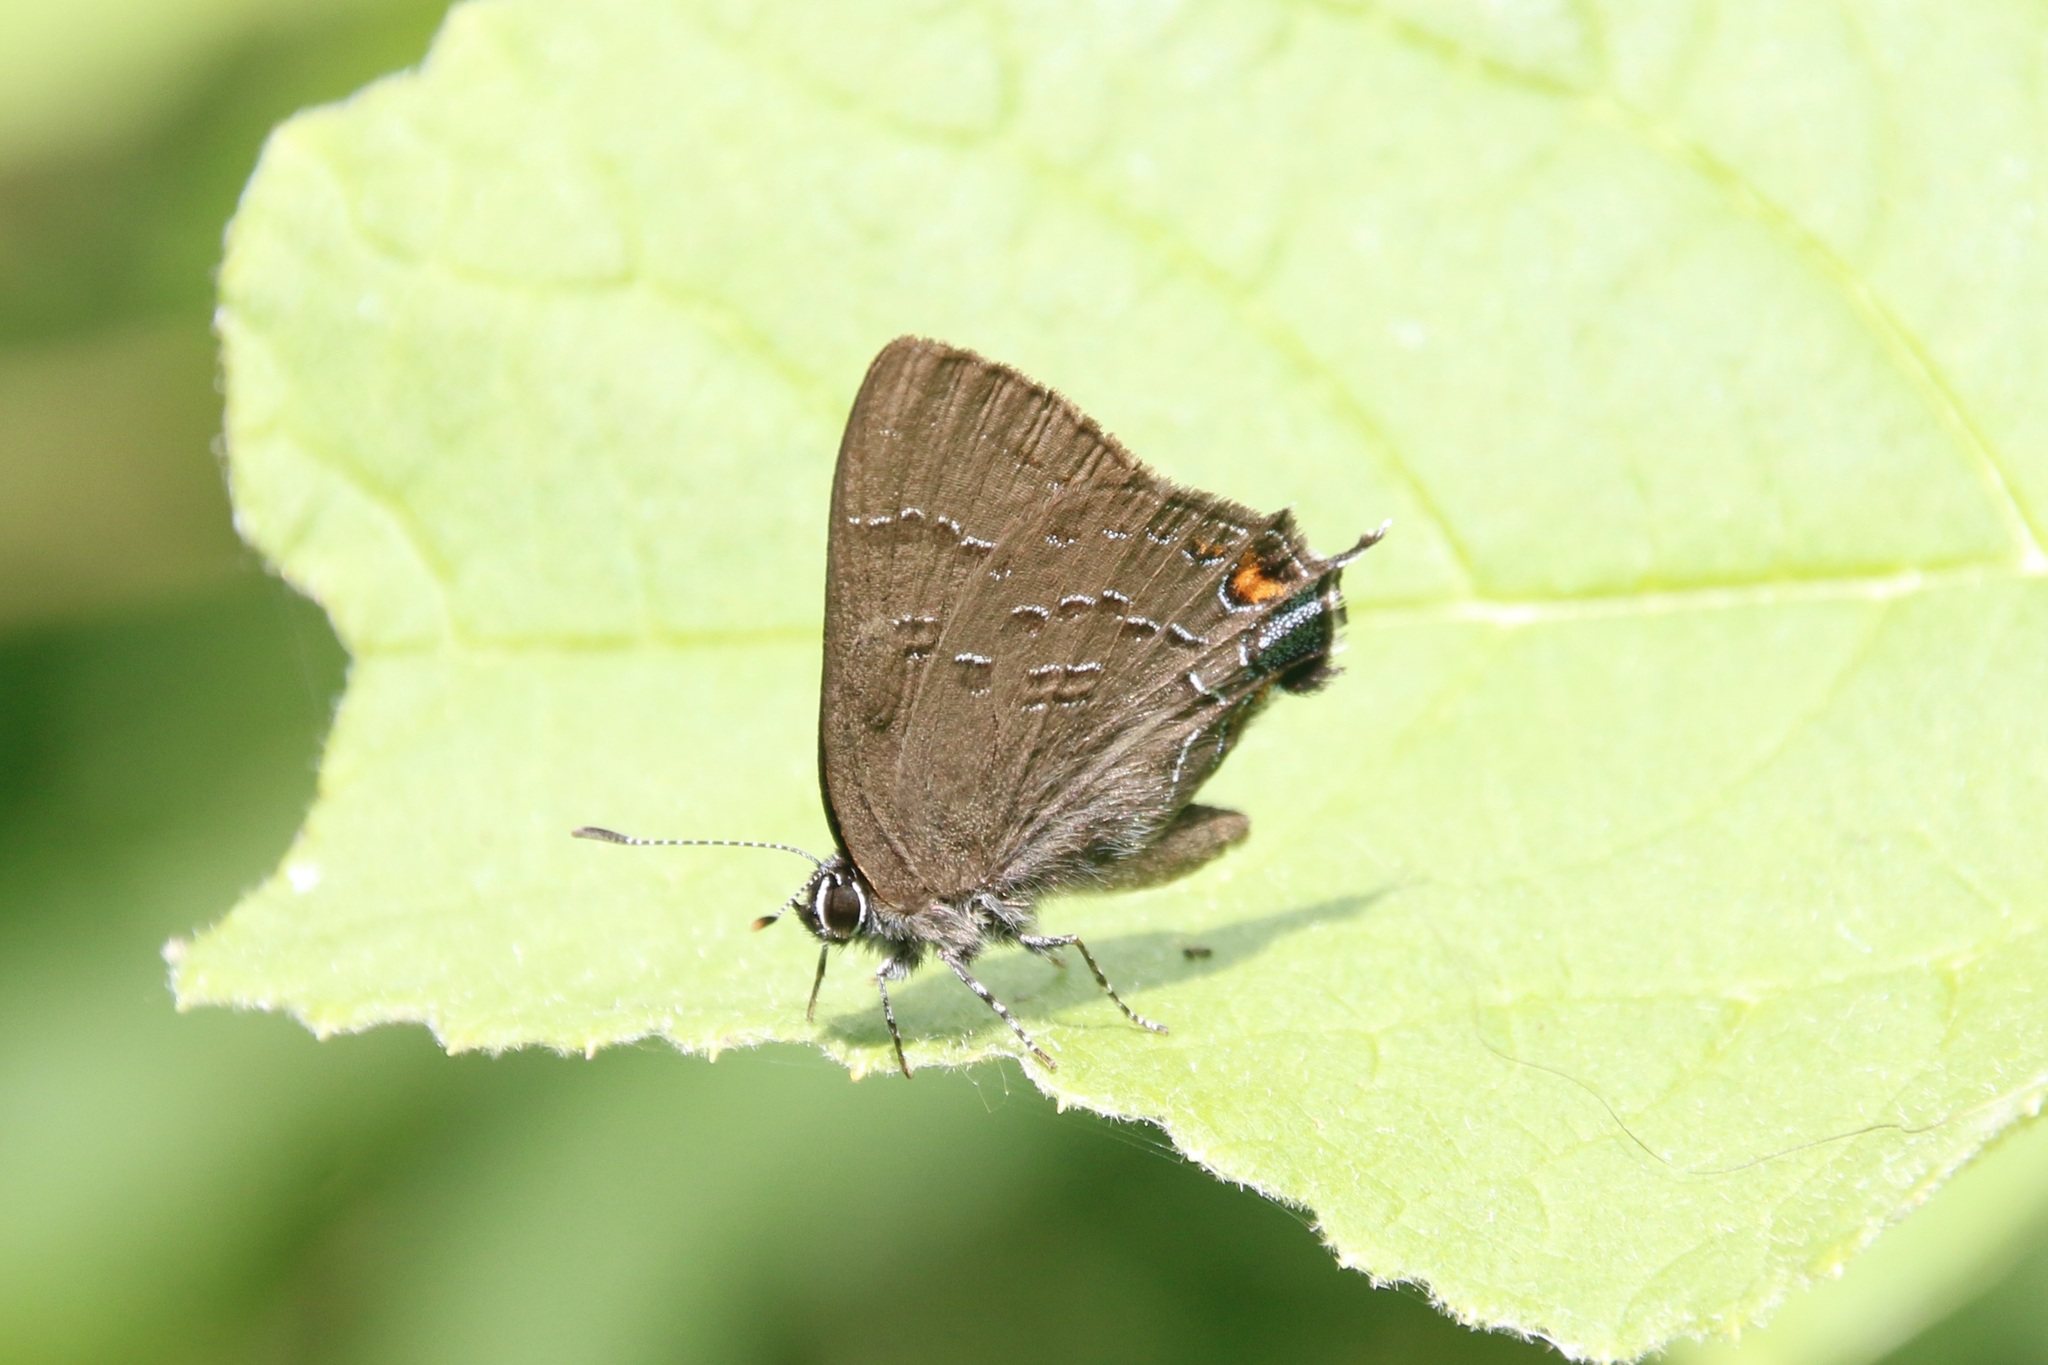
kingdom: Animalia
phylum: Arthropoda
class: Insecta
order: Lepidoptera
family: Lycaenidae
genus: Satyrium
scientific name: Satyrium calanus
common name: Banded hairstreak
